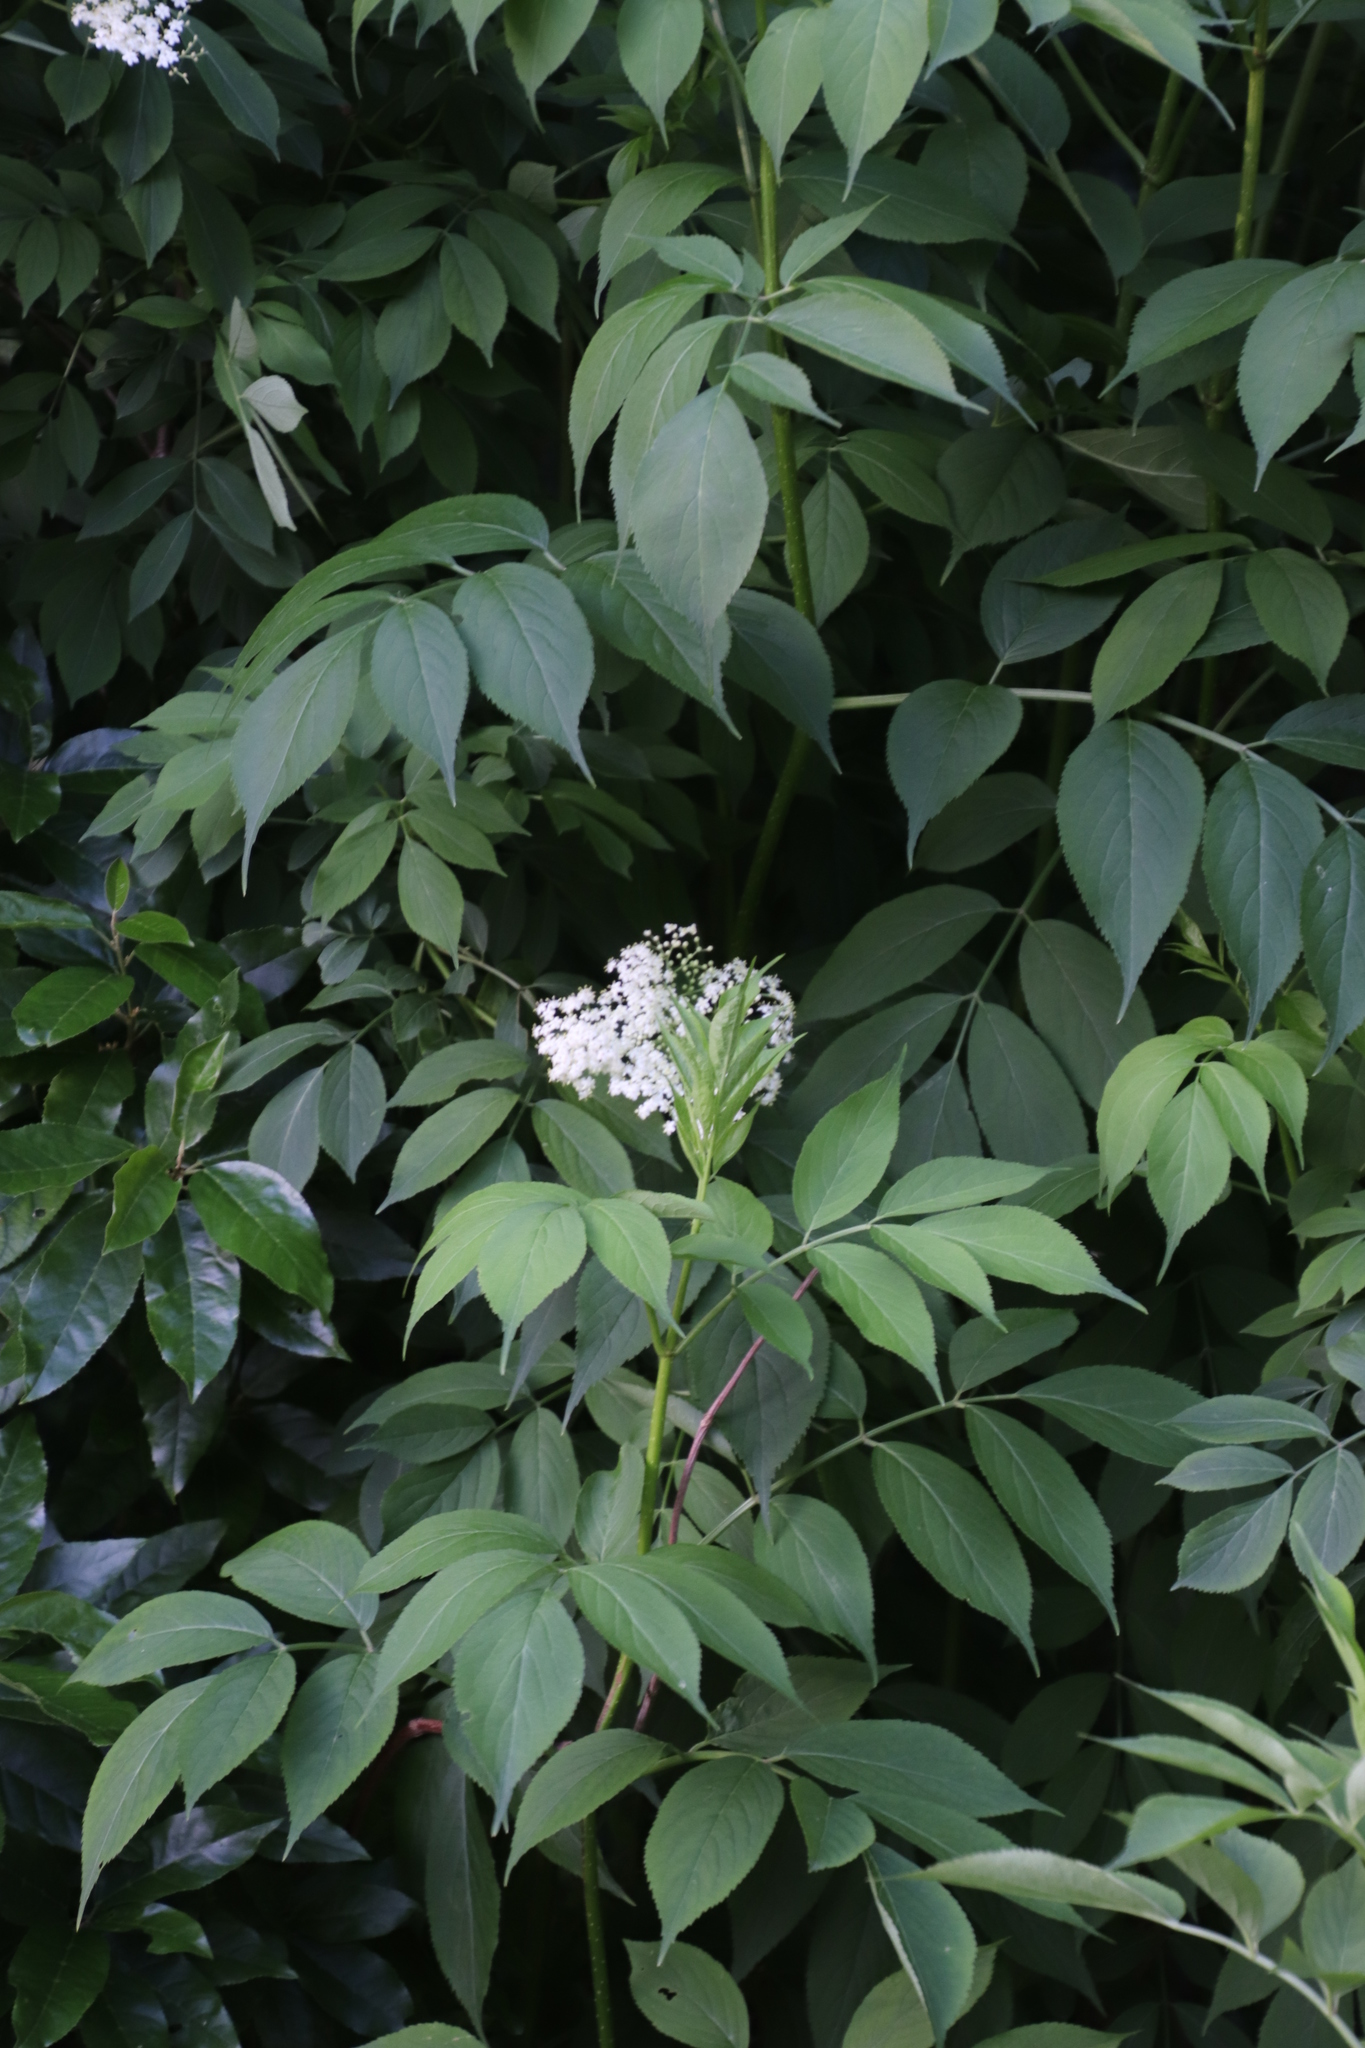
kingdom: Plantae
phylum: Tracheophyta
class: Magnoliopsida
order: Dipsacales
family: Viburnaceae
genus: Sambucus
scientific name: Sambucus nigra
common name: Elder
